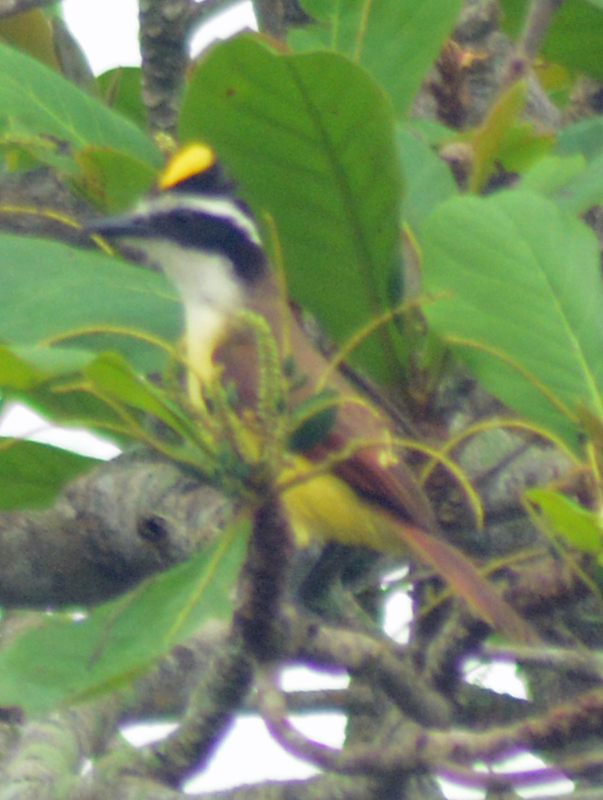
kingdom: Animalia
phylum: Chordata
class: Aves
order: Passeriformes
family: Tyrannidae
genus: Pitangus
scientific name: Pitangus sulphuratus
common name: Great kiskadee
